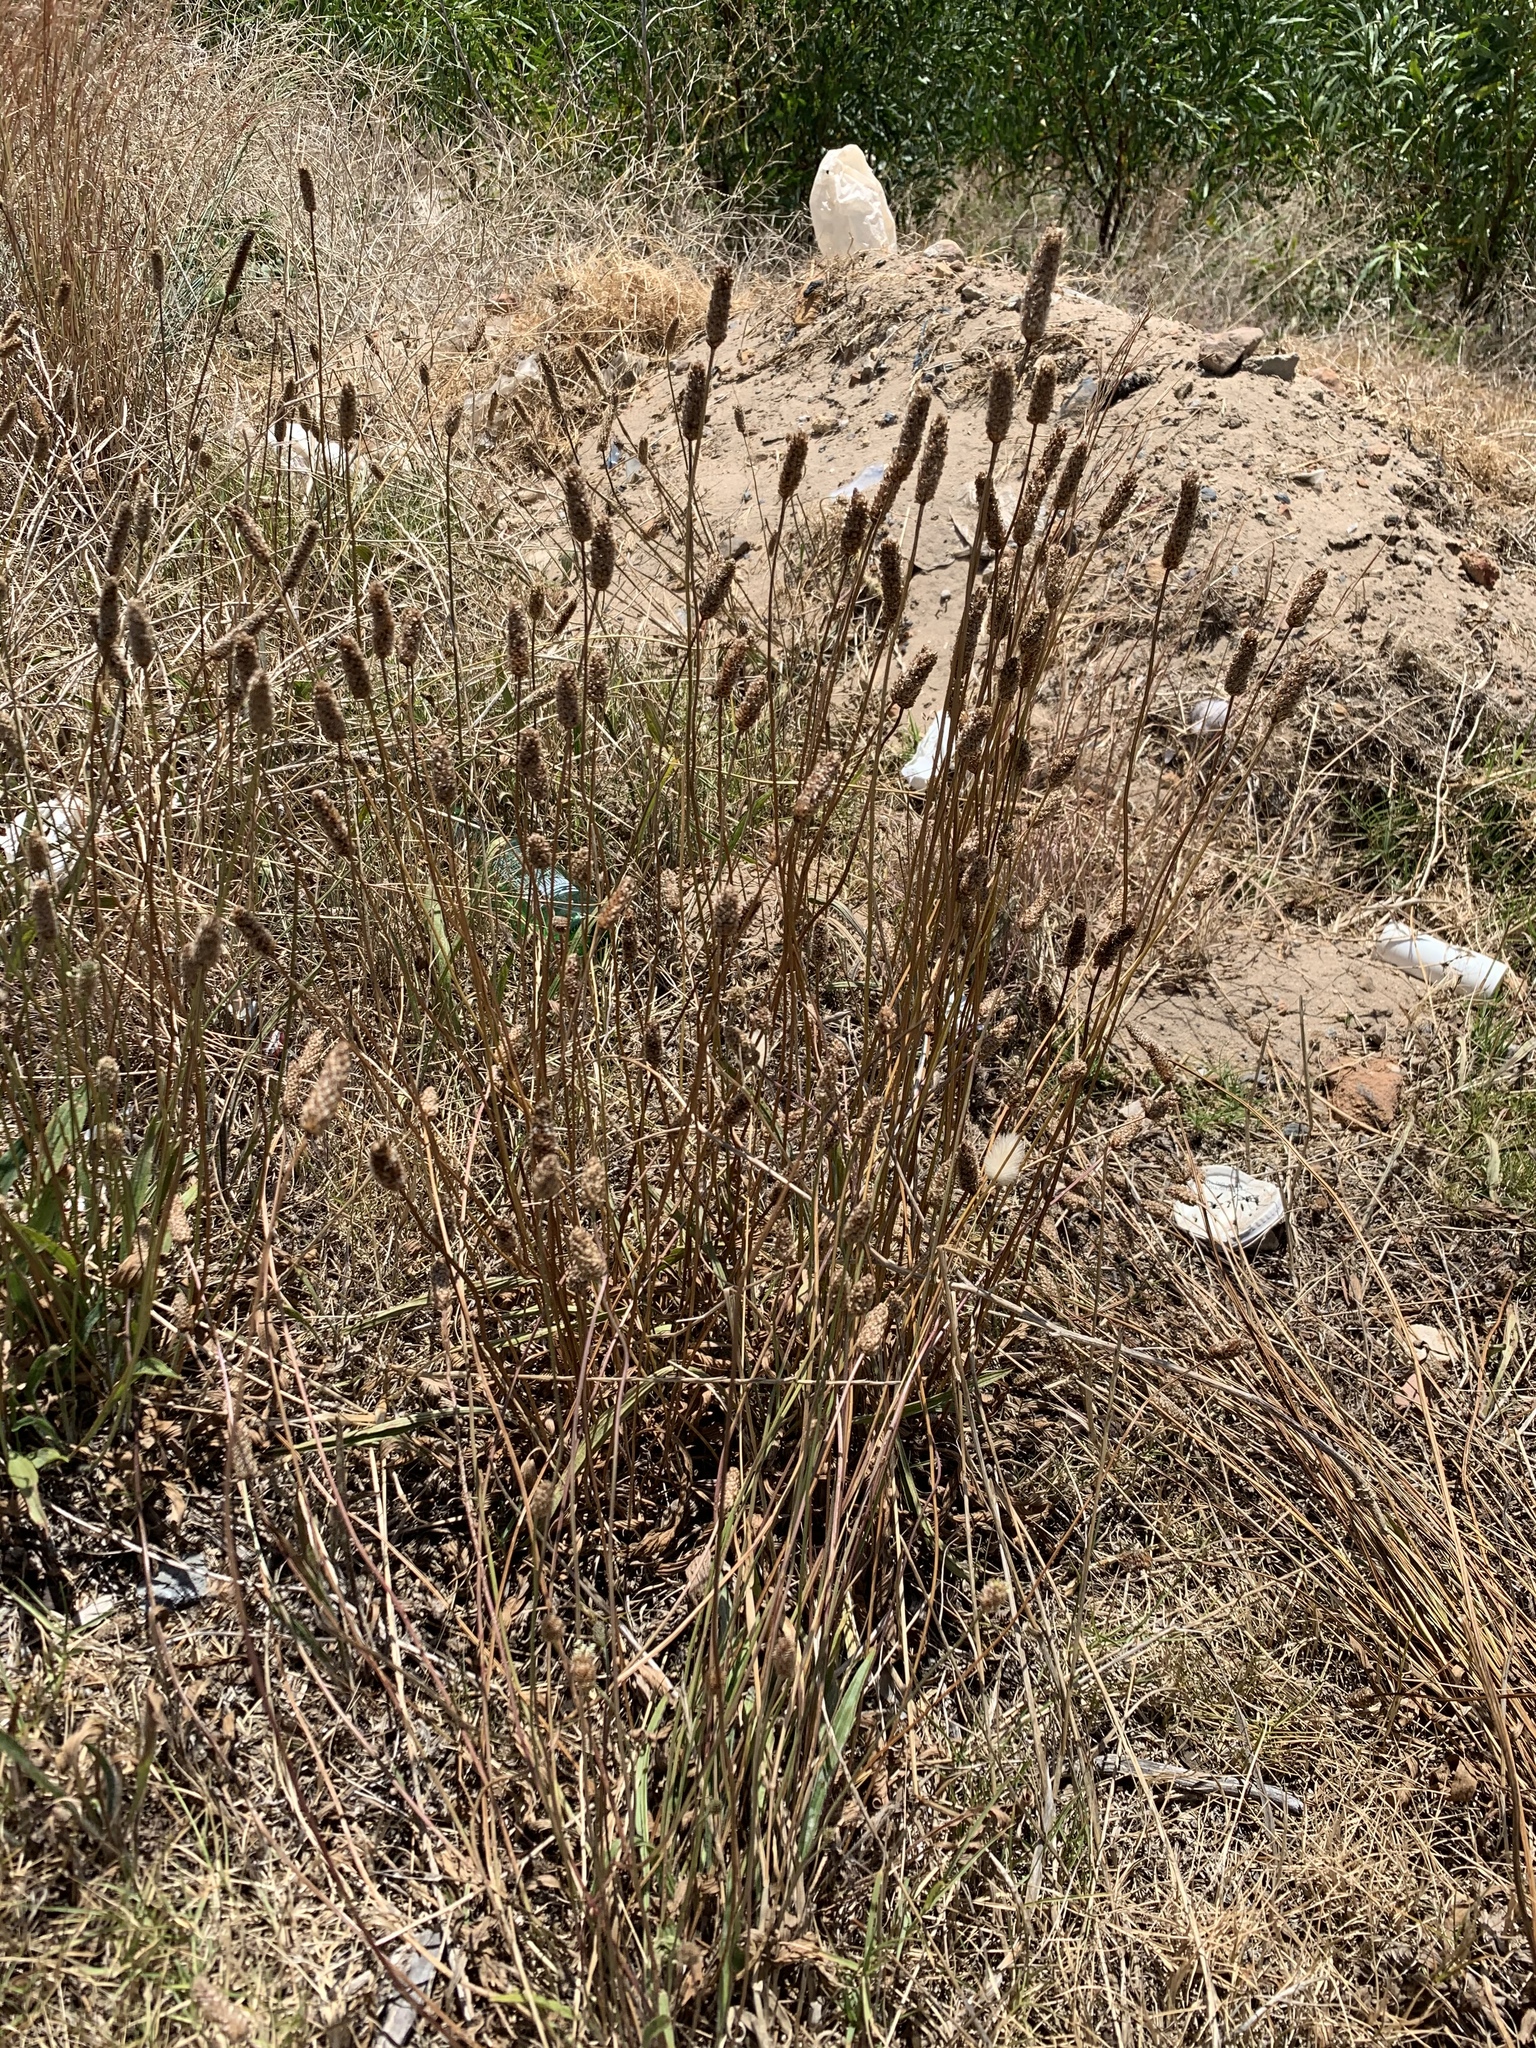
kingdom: Plantae
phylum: Tracheophyta
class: Magnoliopsida
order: Lamiales
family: Plantaginaceae
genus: Plantago
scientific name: Plantago lanceolata
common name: Ribwort plantain
